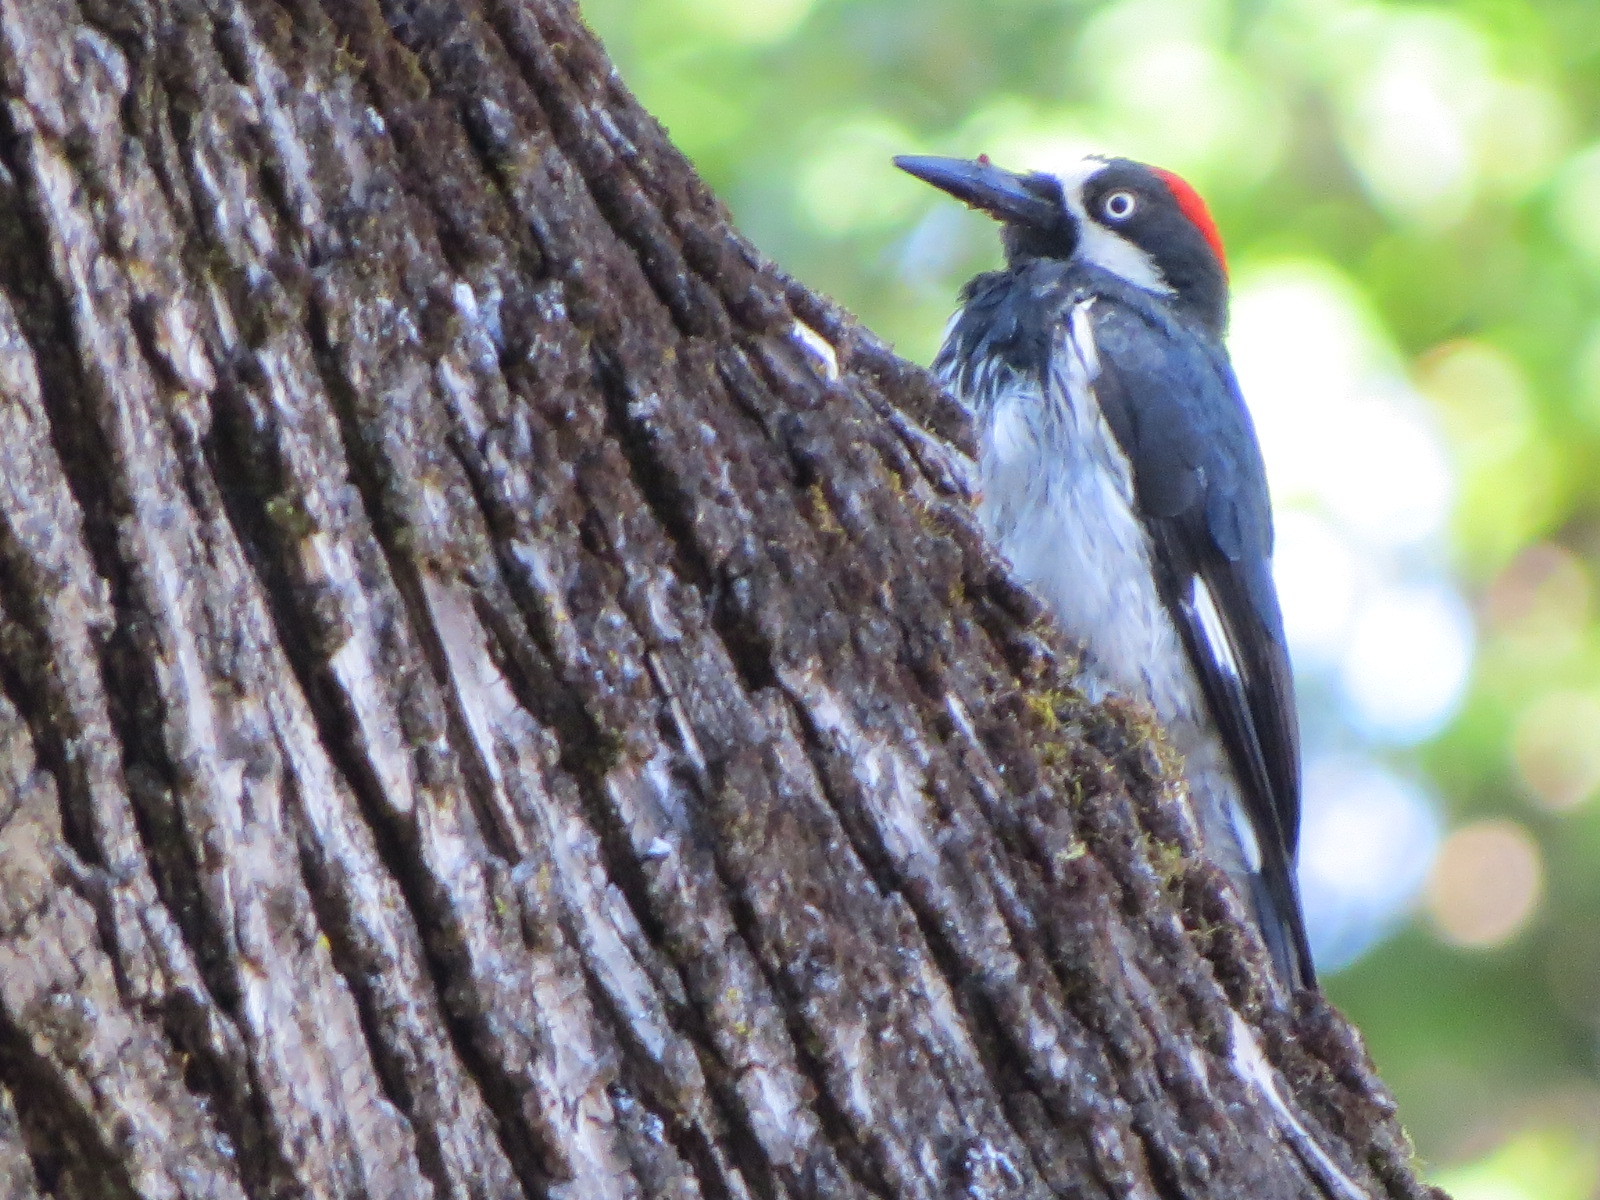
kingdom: Animalia
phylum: Chordata
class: Aves
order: Piciformes
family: Picidae
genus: Melanerpes
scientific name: Melanerpes formicivorus
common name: Acorn woodpecker
